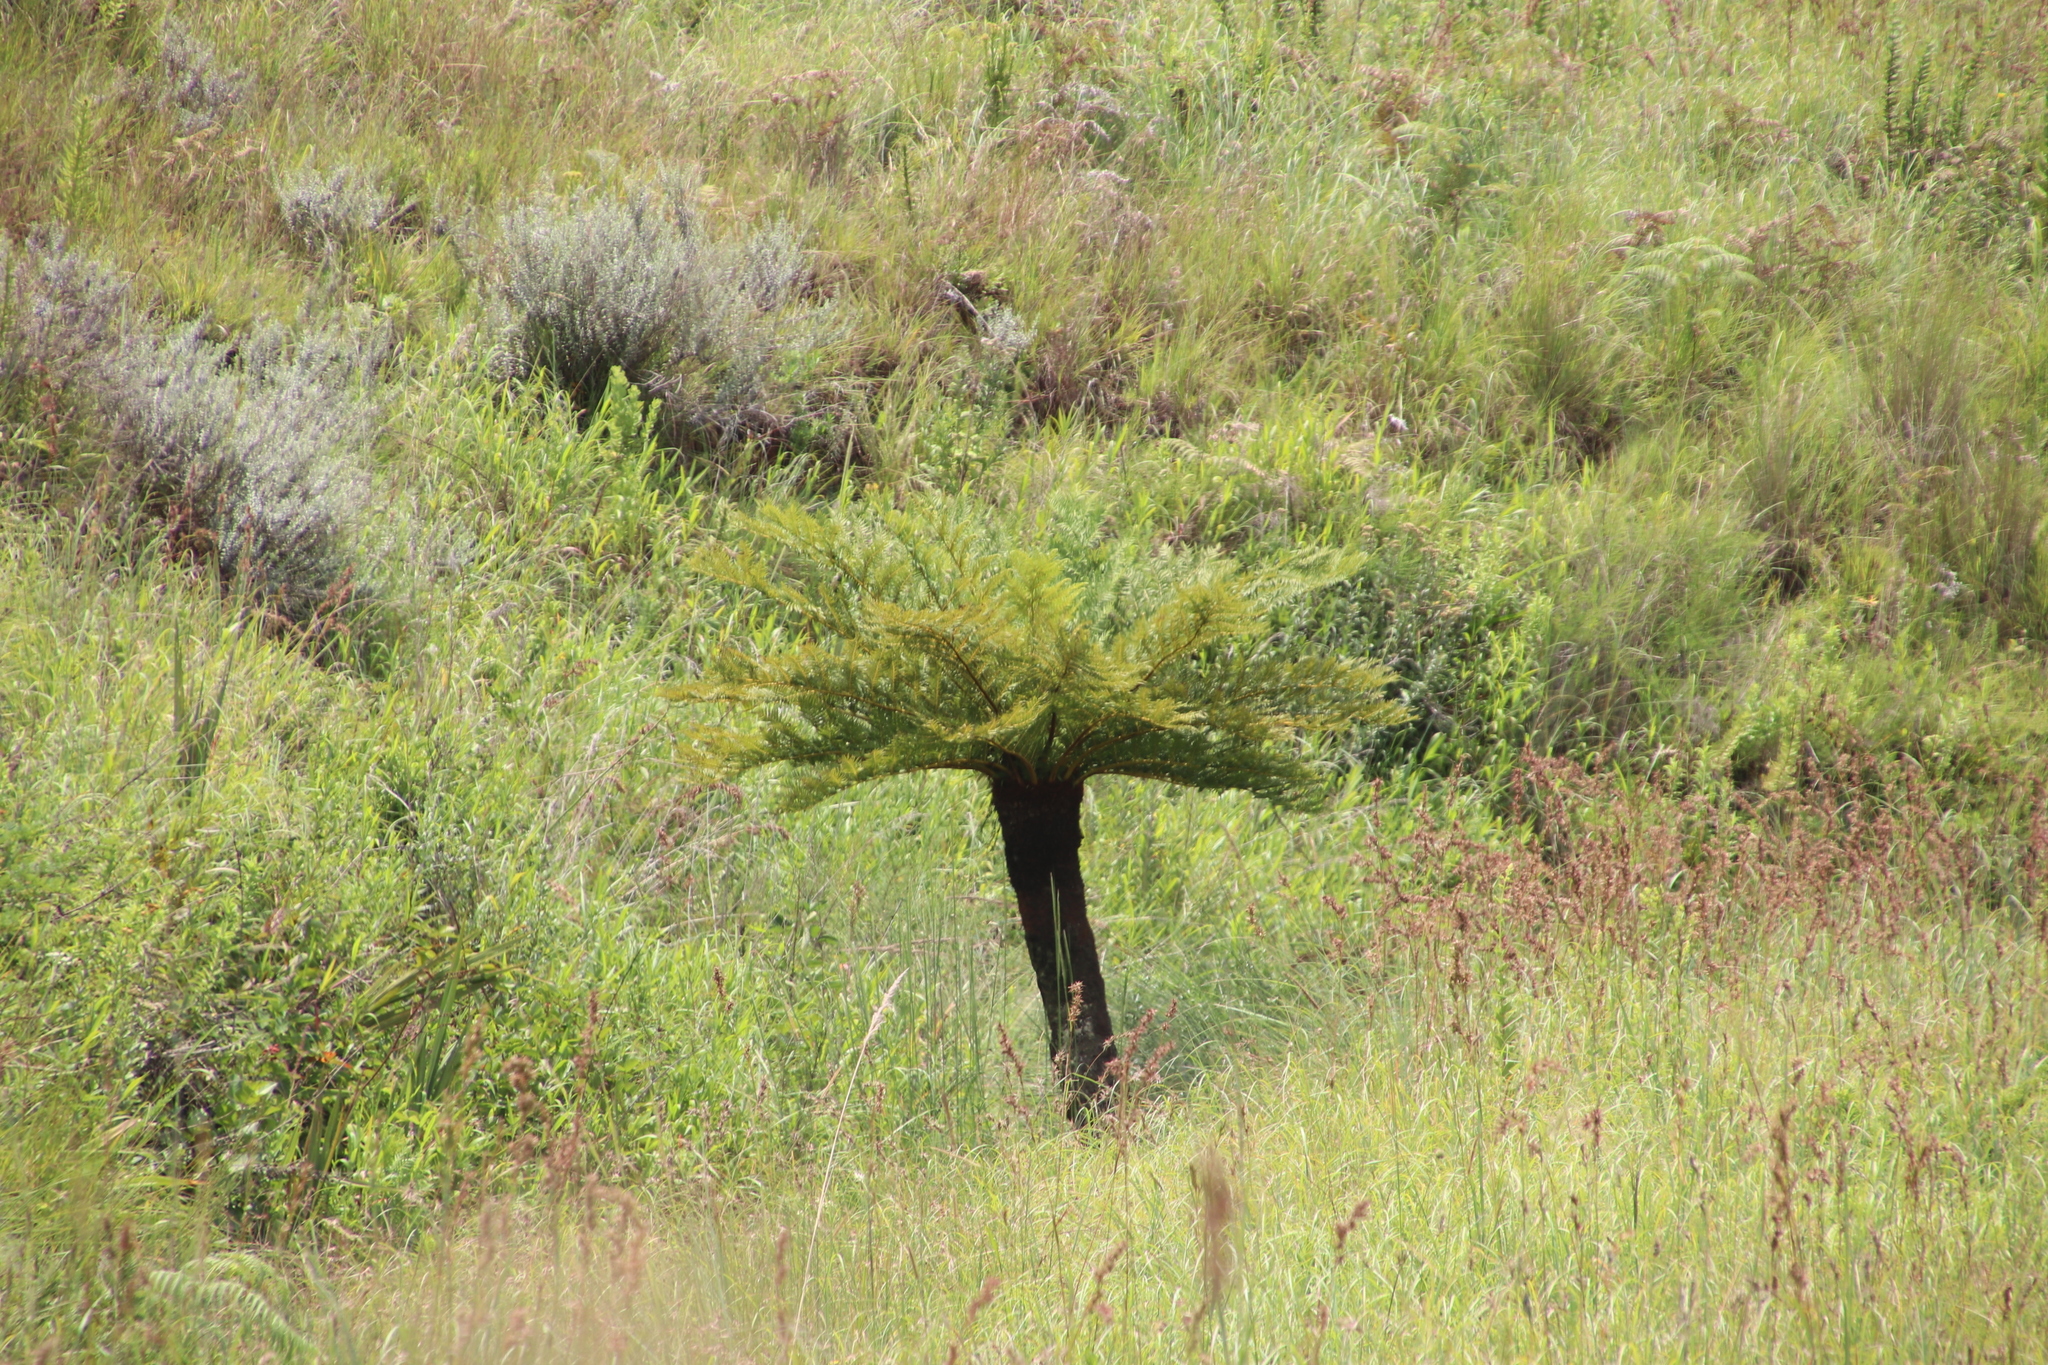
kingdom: Plantae
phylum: Tracheophyta
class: Polypodiopsida
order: Cyatheales
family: Cyatheaceae
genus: Alsophila
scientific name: Alsophila dregei
